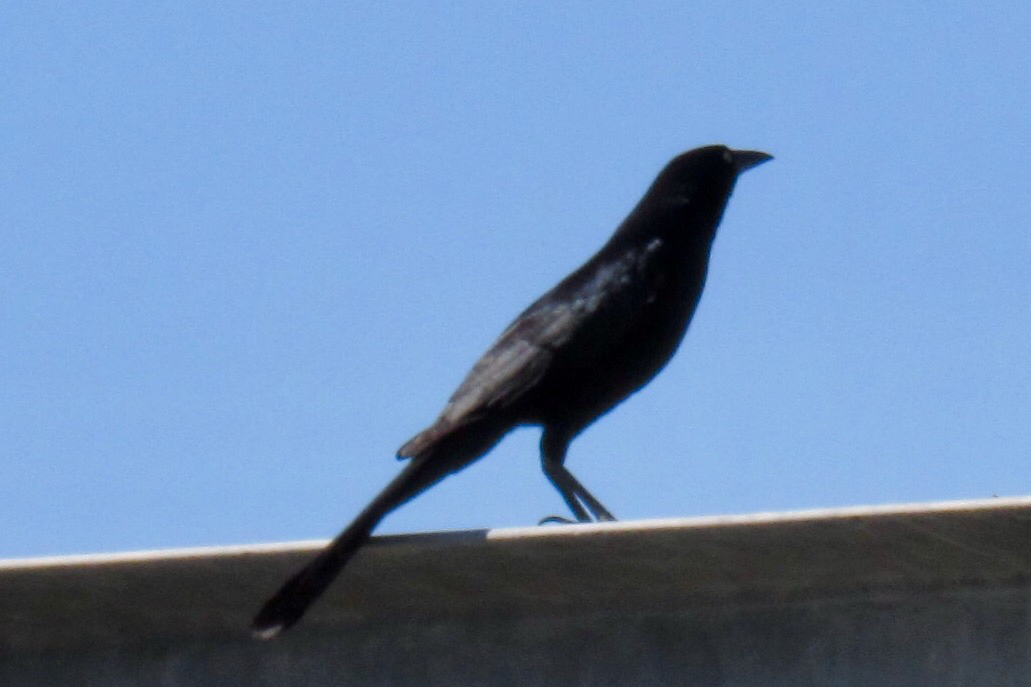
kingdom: Animalia
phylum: Chordata
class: Aves
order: Passeriformes
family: Icteridae
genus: Quiscalus
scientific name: Quiscalus mexicanus
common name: Great-tailed grackle
